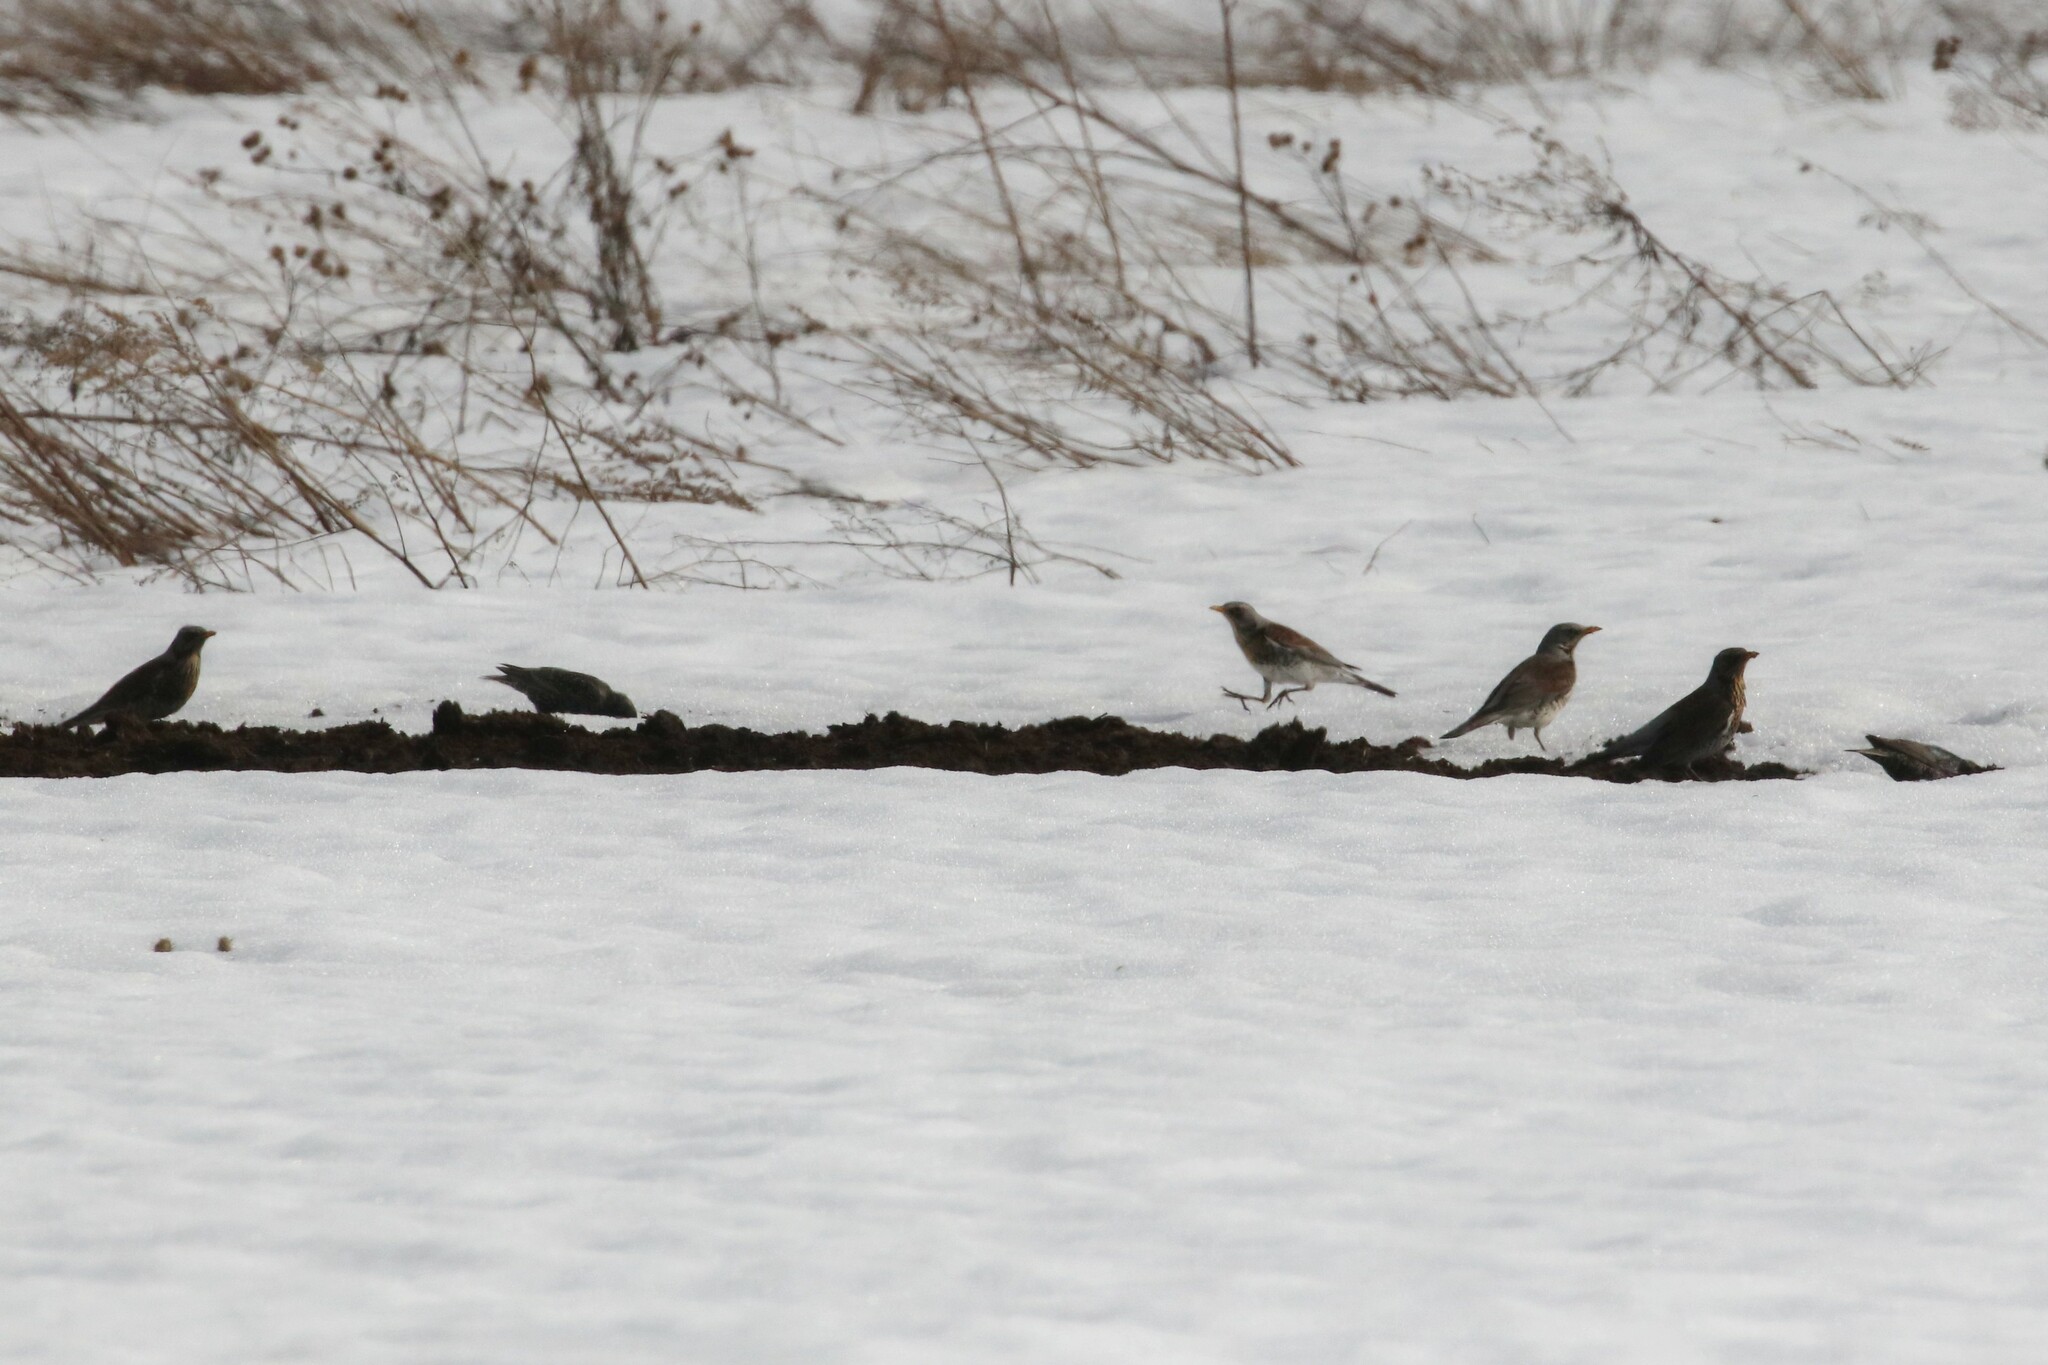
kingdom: Animalia
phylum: Chordata
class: Aves
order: Passeriformes
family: Turdidae
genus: Turdus
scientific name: Turdus pilaris
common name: Fieldfare
